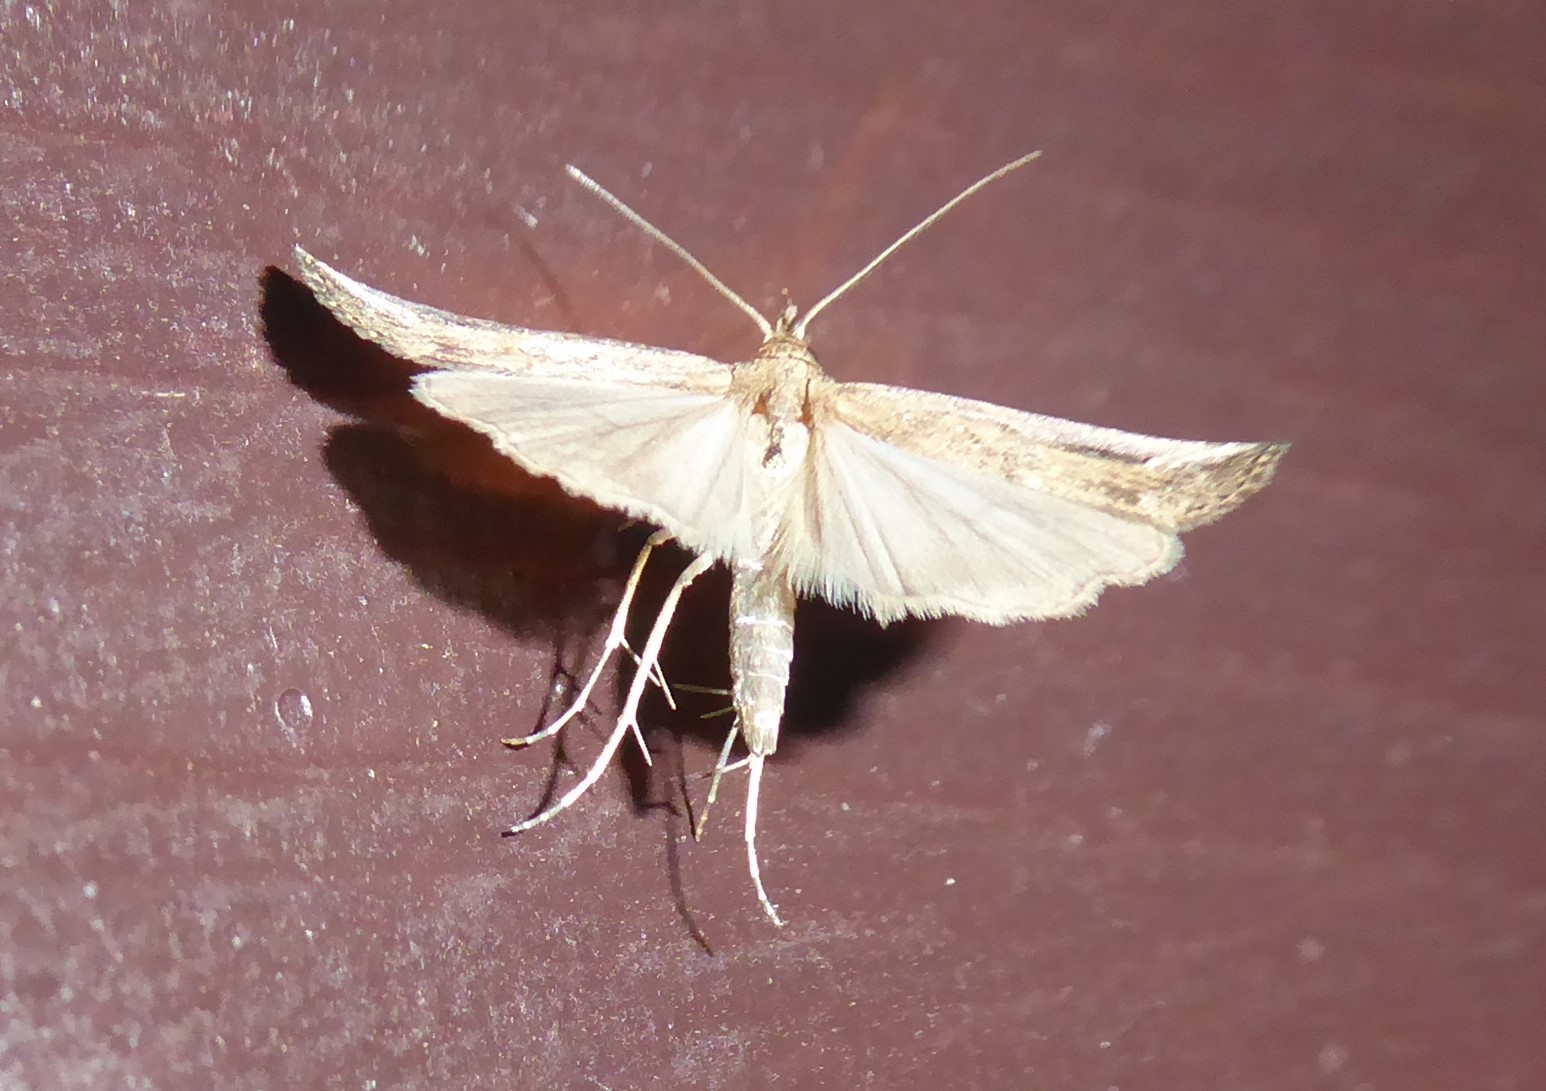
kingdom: Animalia
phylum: Arthropoda
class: Insecta
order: Lepidoptera
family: Erebidae
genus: Schrankia
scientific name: Schrankia costaestrigalis
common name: Pinion-streaked snout
